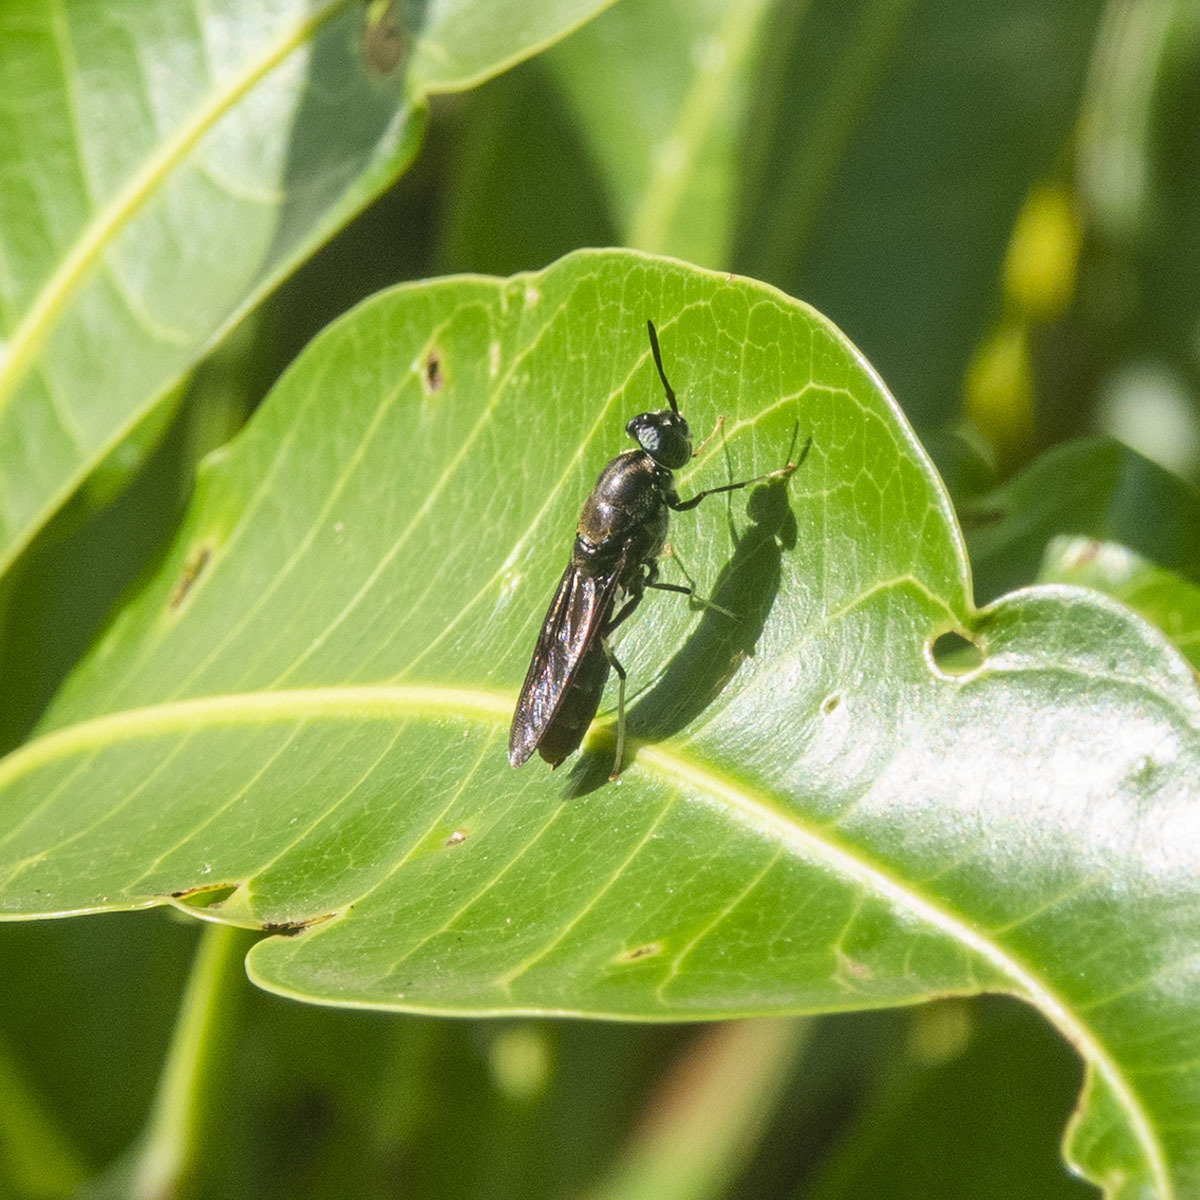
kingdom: Animalia
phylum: Arthropoda
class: Insecta
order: Diptera
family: Stratiomyidae
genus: Hermetia
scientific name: Hermetia illucens
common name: Black soldier fly
